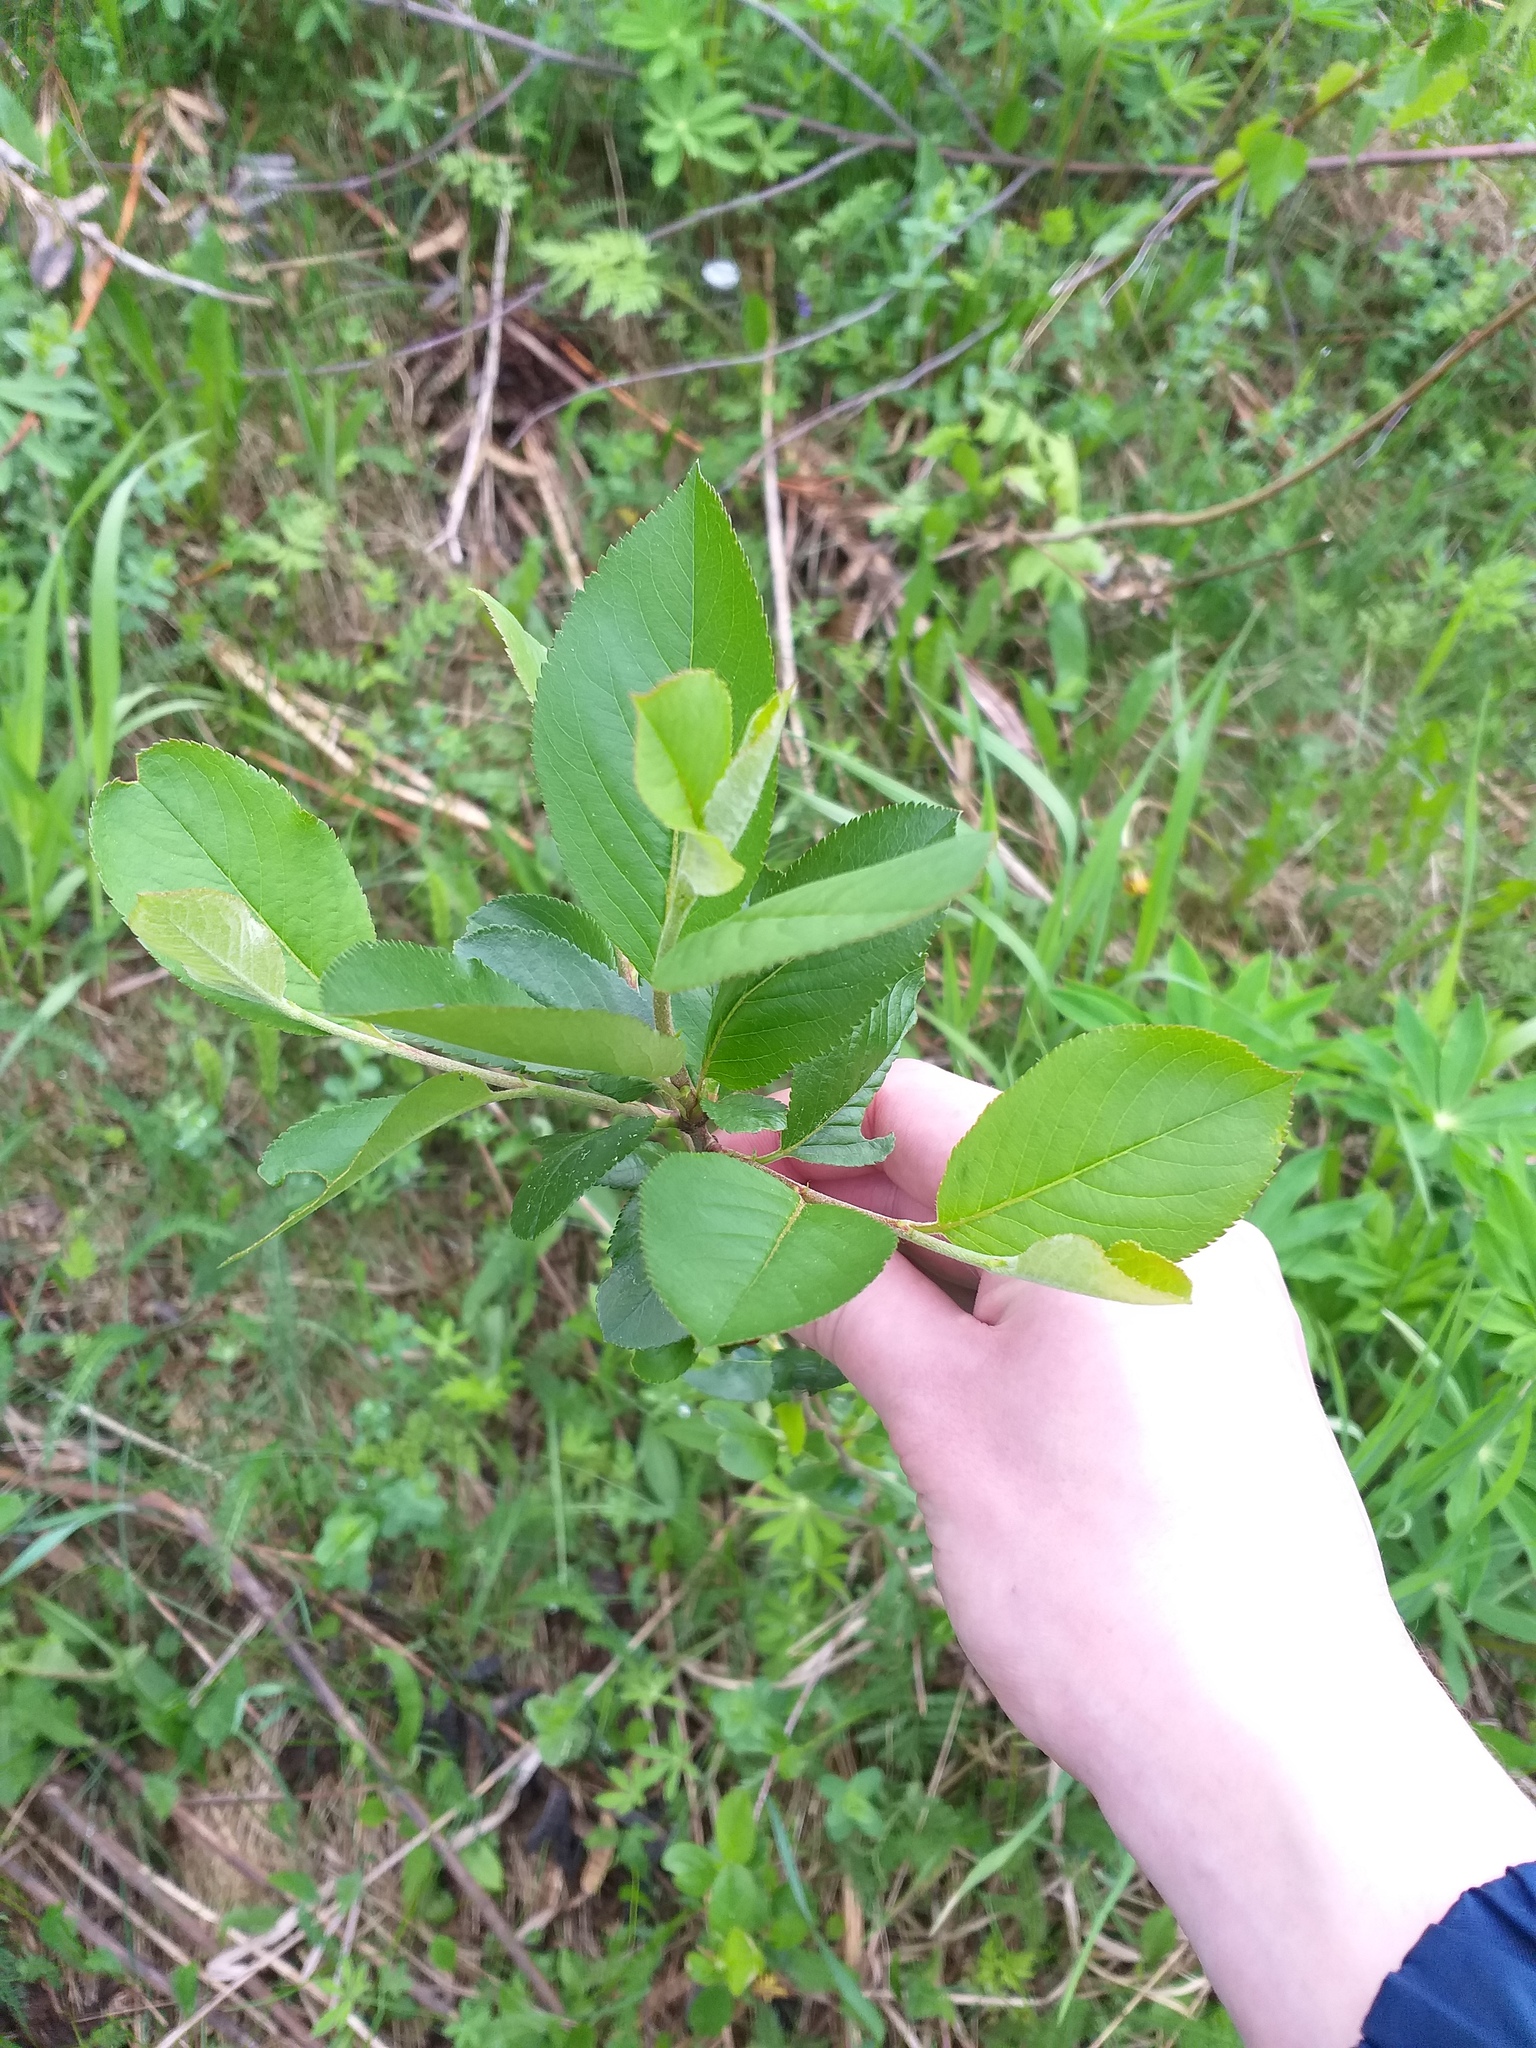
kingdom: Plantae
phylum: Tracheophyta
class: Magnoliopsida
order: Rosales
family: Rosaceae
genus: Sorbaronia
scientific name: Sorbaronia arsenii
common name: Arsène's mountain-ash
